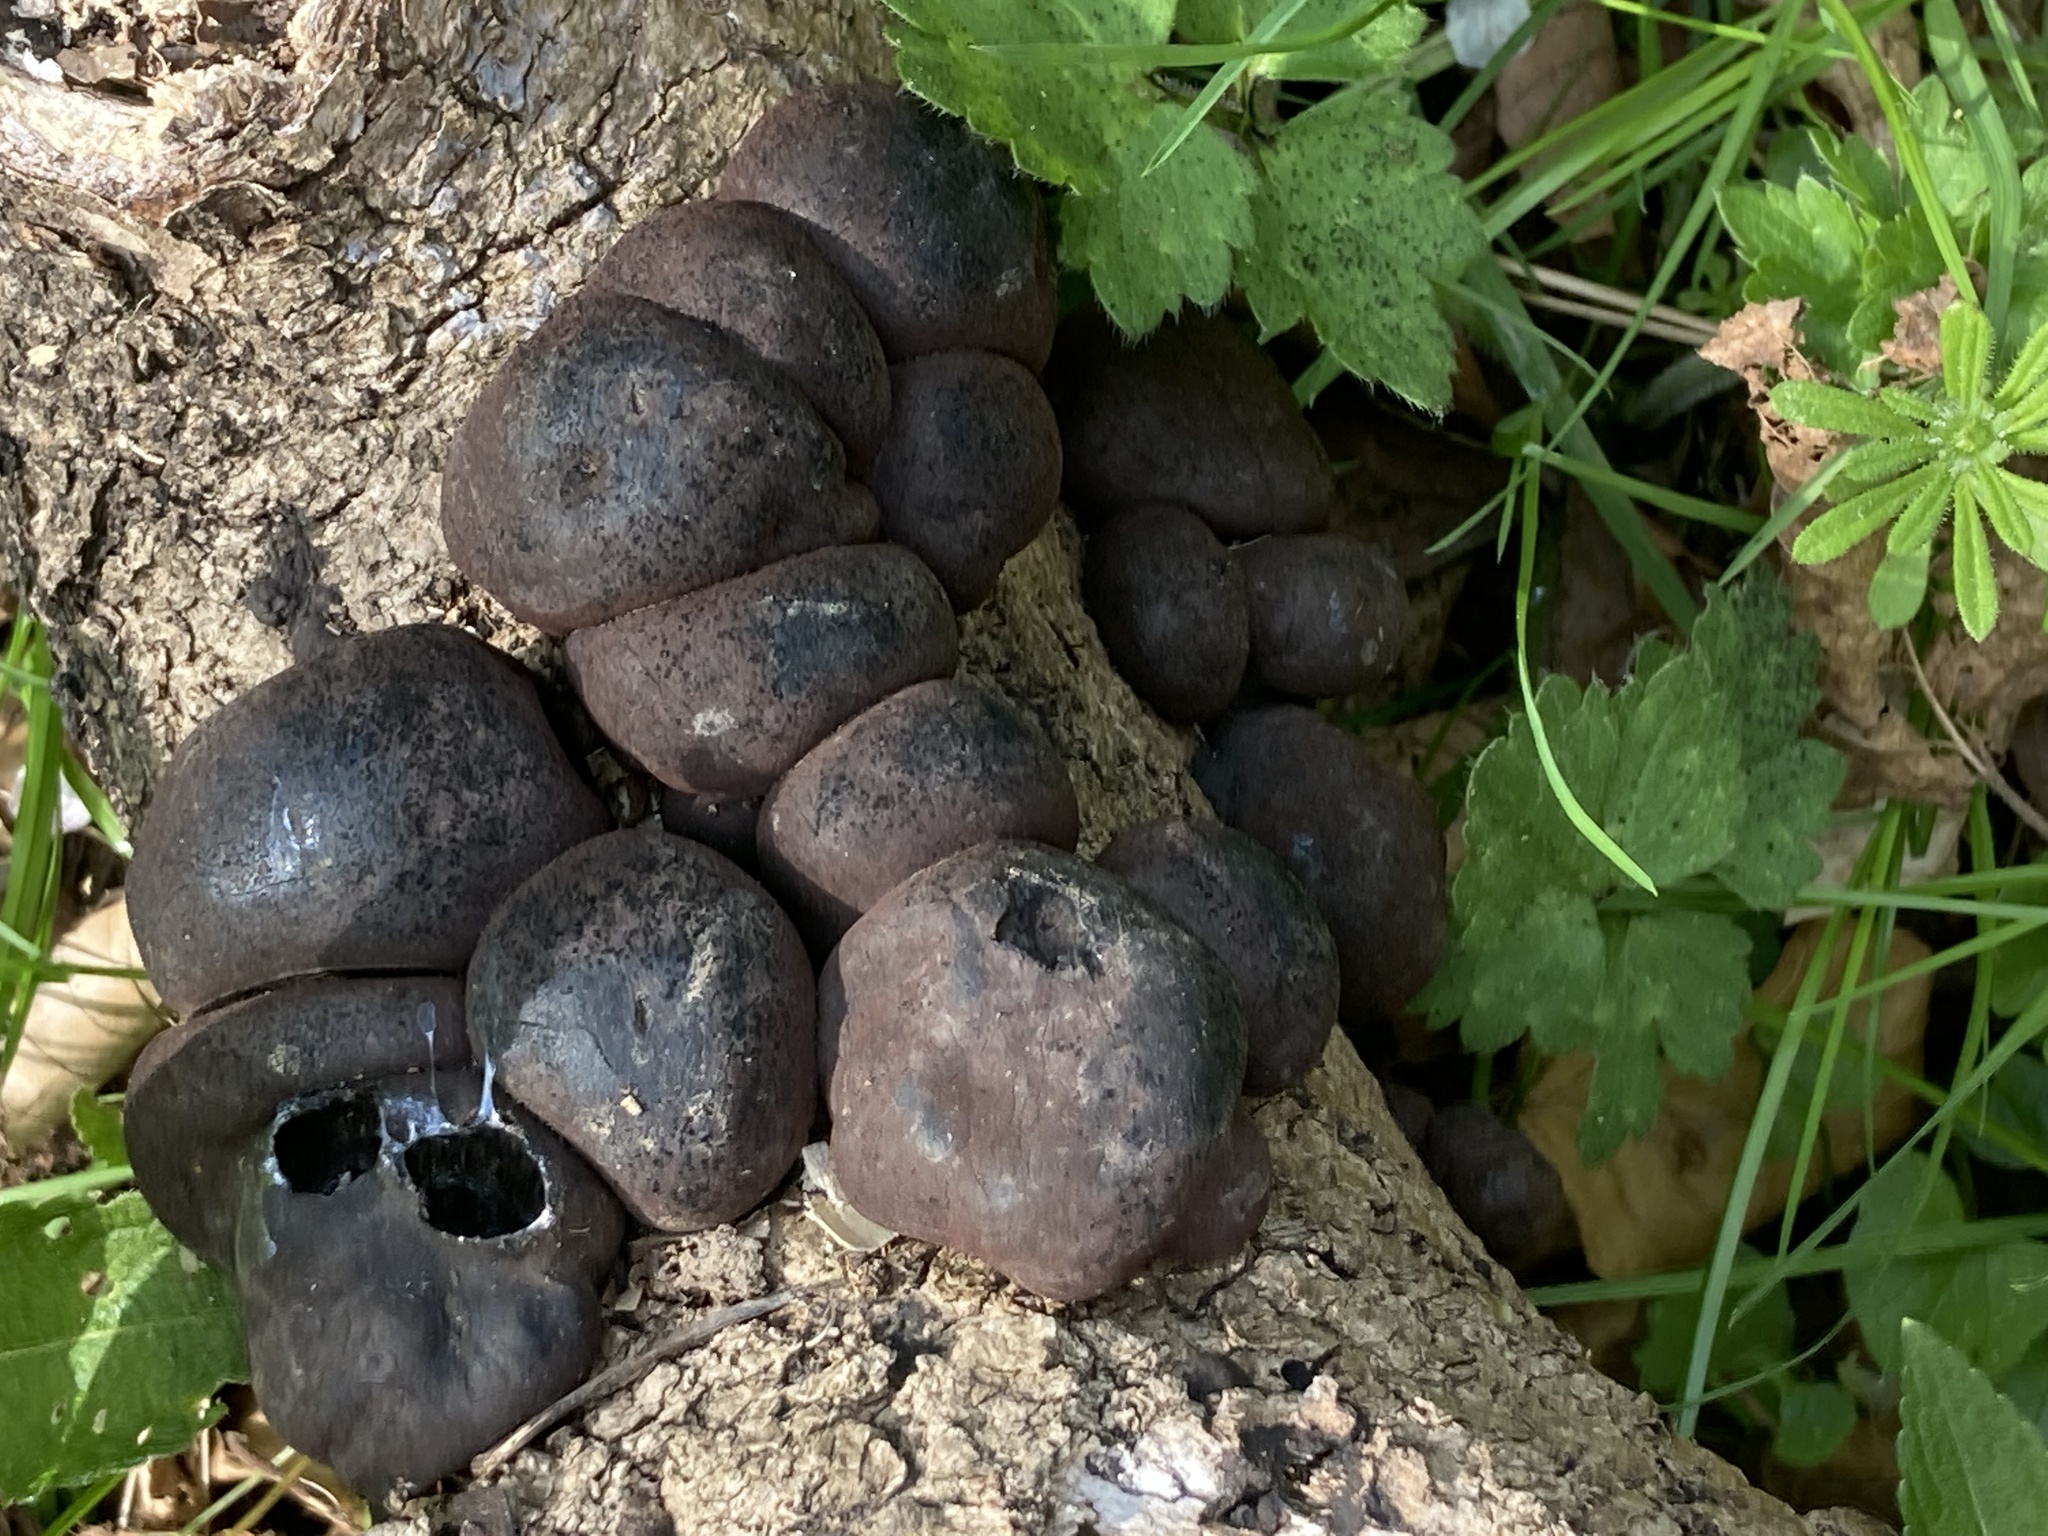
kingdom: Fungi
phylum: Ascomycota
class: Sordariomycetes
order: Xylariales
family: Hypoxylaceae
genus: Daldinia
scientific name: Daldinia concentrica
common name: Cramp balls
